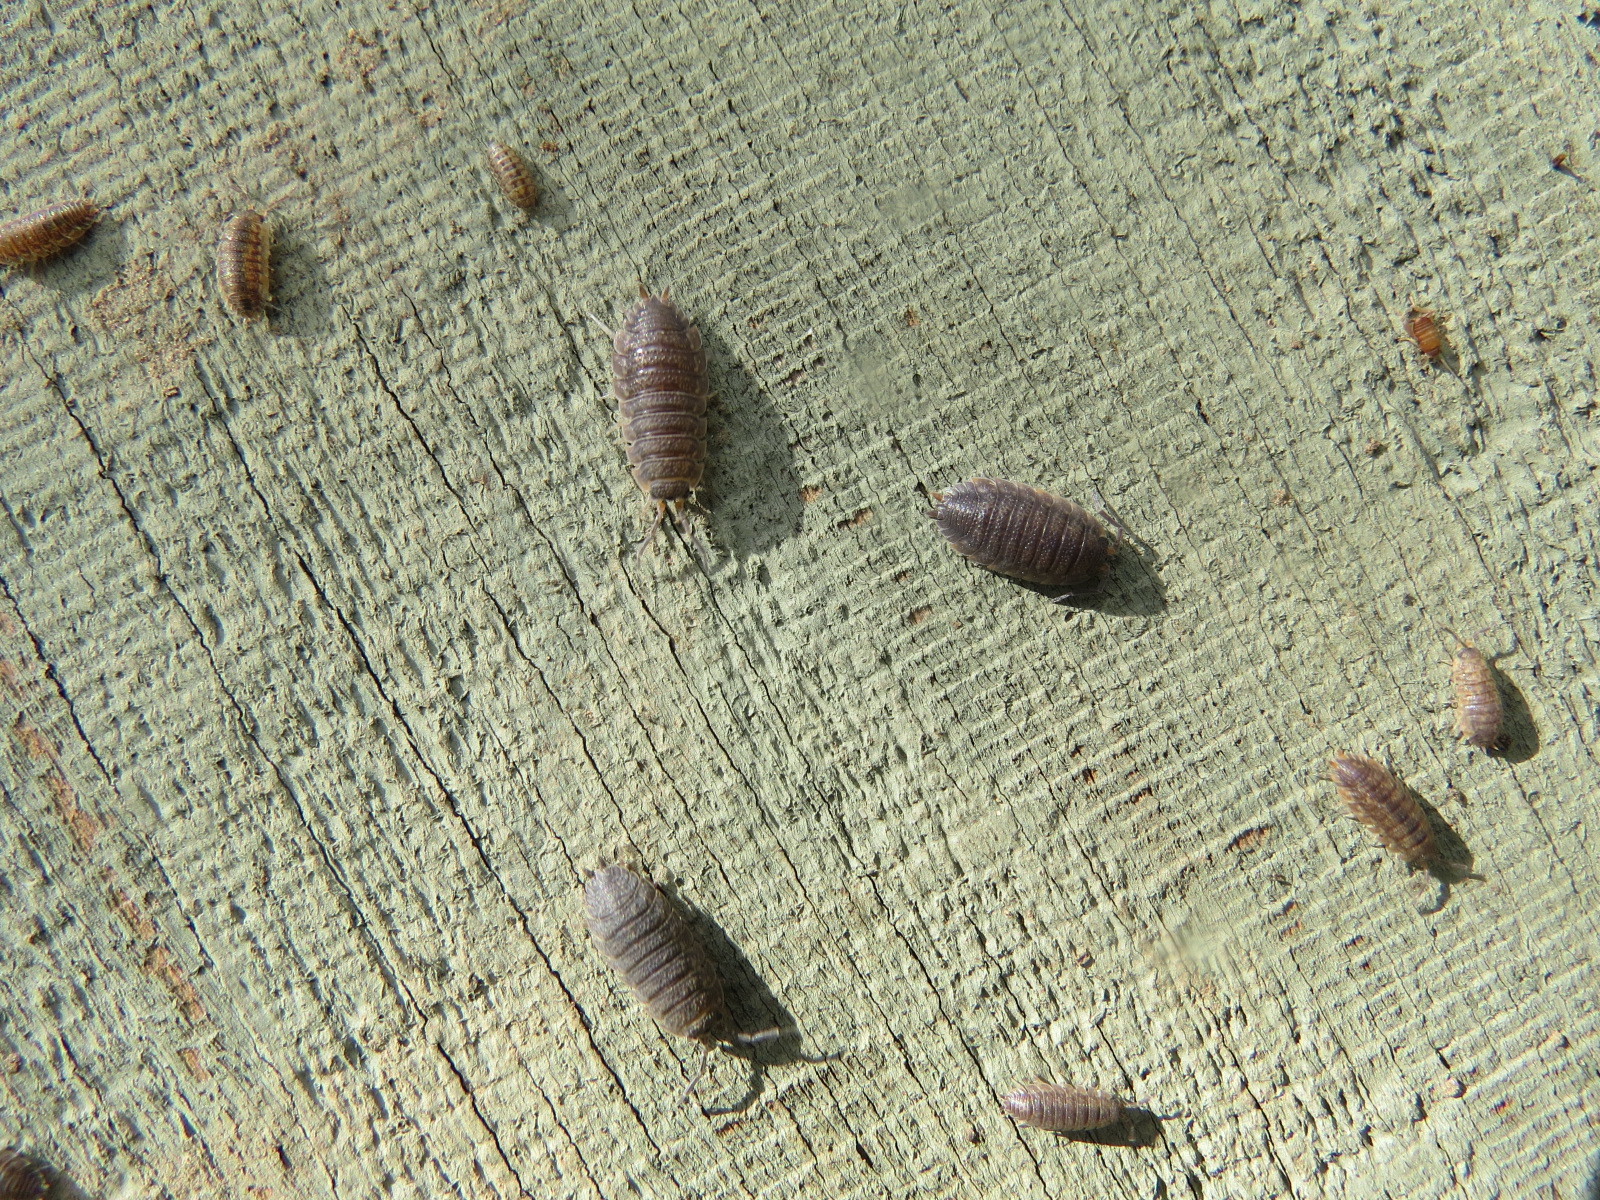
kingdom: Animalia
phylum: Arthropoda
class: Malacostraca
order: Isopoda
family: Porcellionidae
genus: Porcellio
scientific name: Porcellio scaber
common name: Common rough woodlouse
